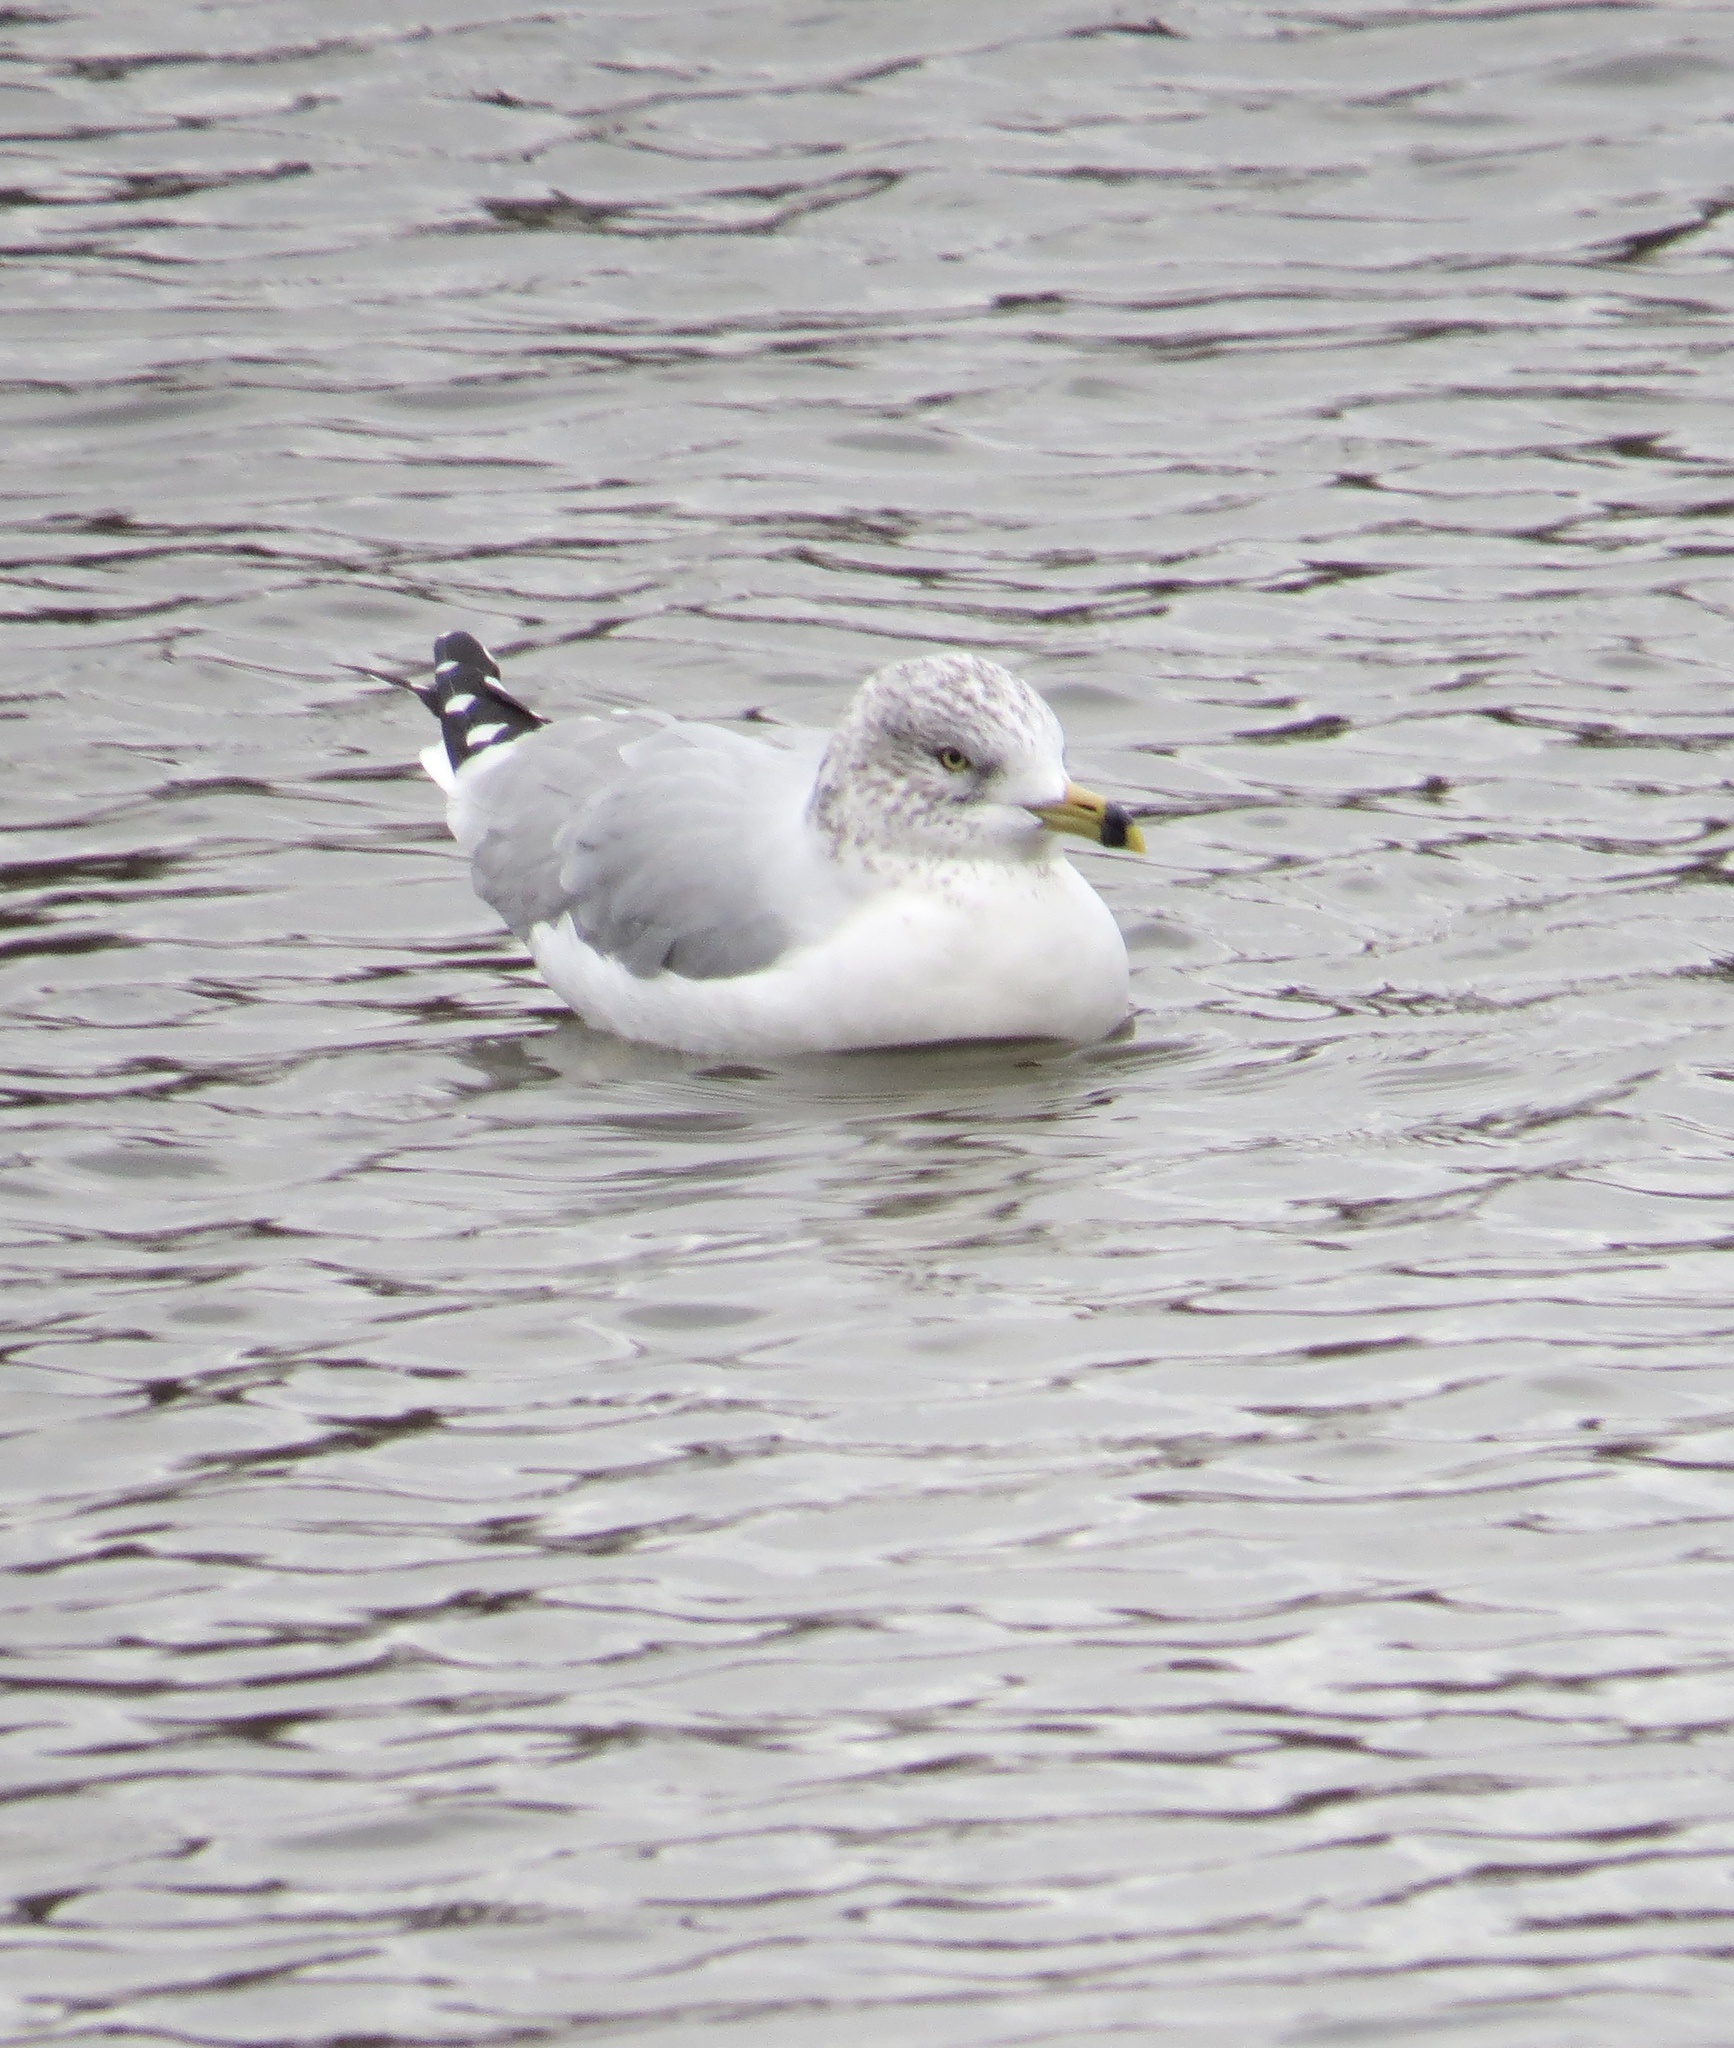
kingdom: Animalia
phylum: Chordata
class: Aves
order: Charadriiformes
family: Laridae
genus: Larus
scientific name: Larus delawarensis
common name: Ring-billed gull
